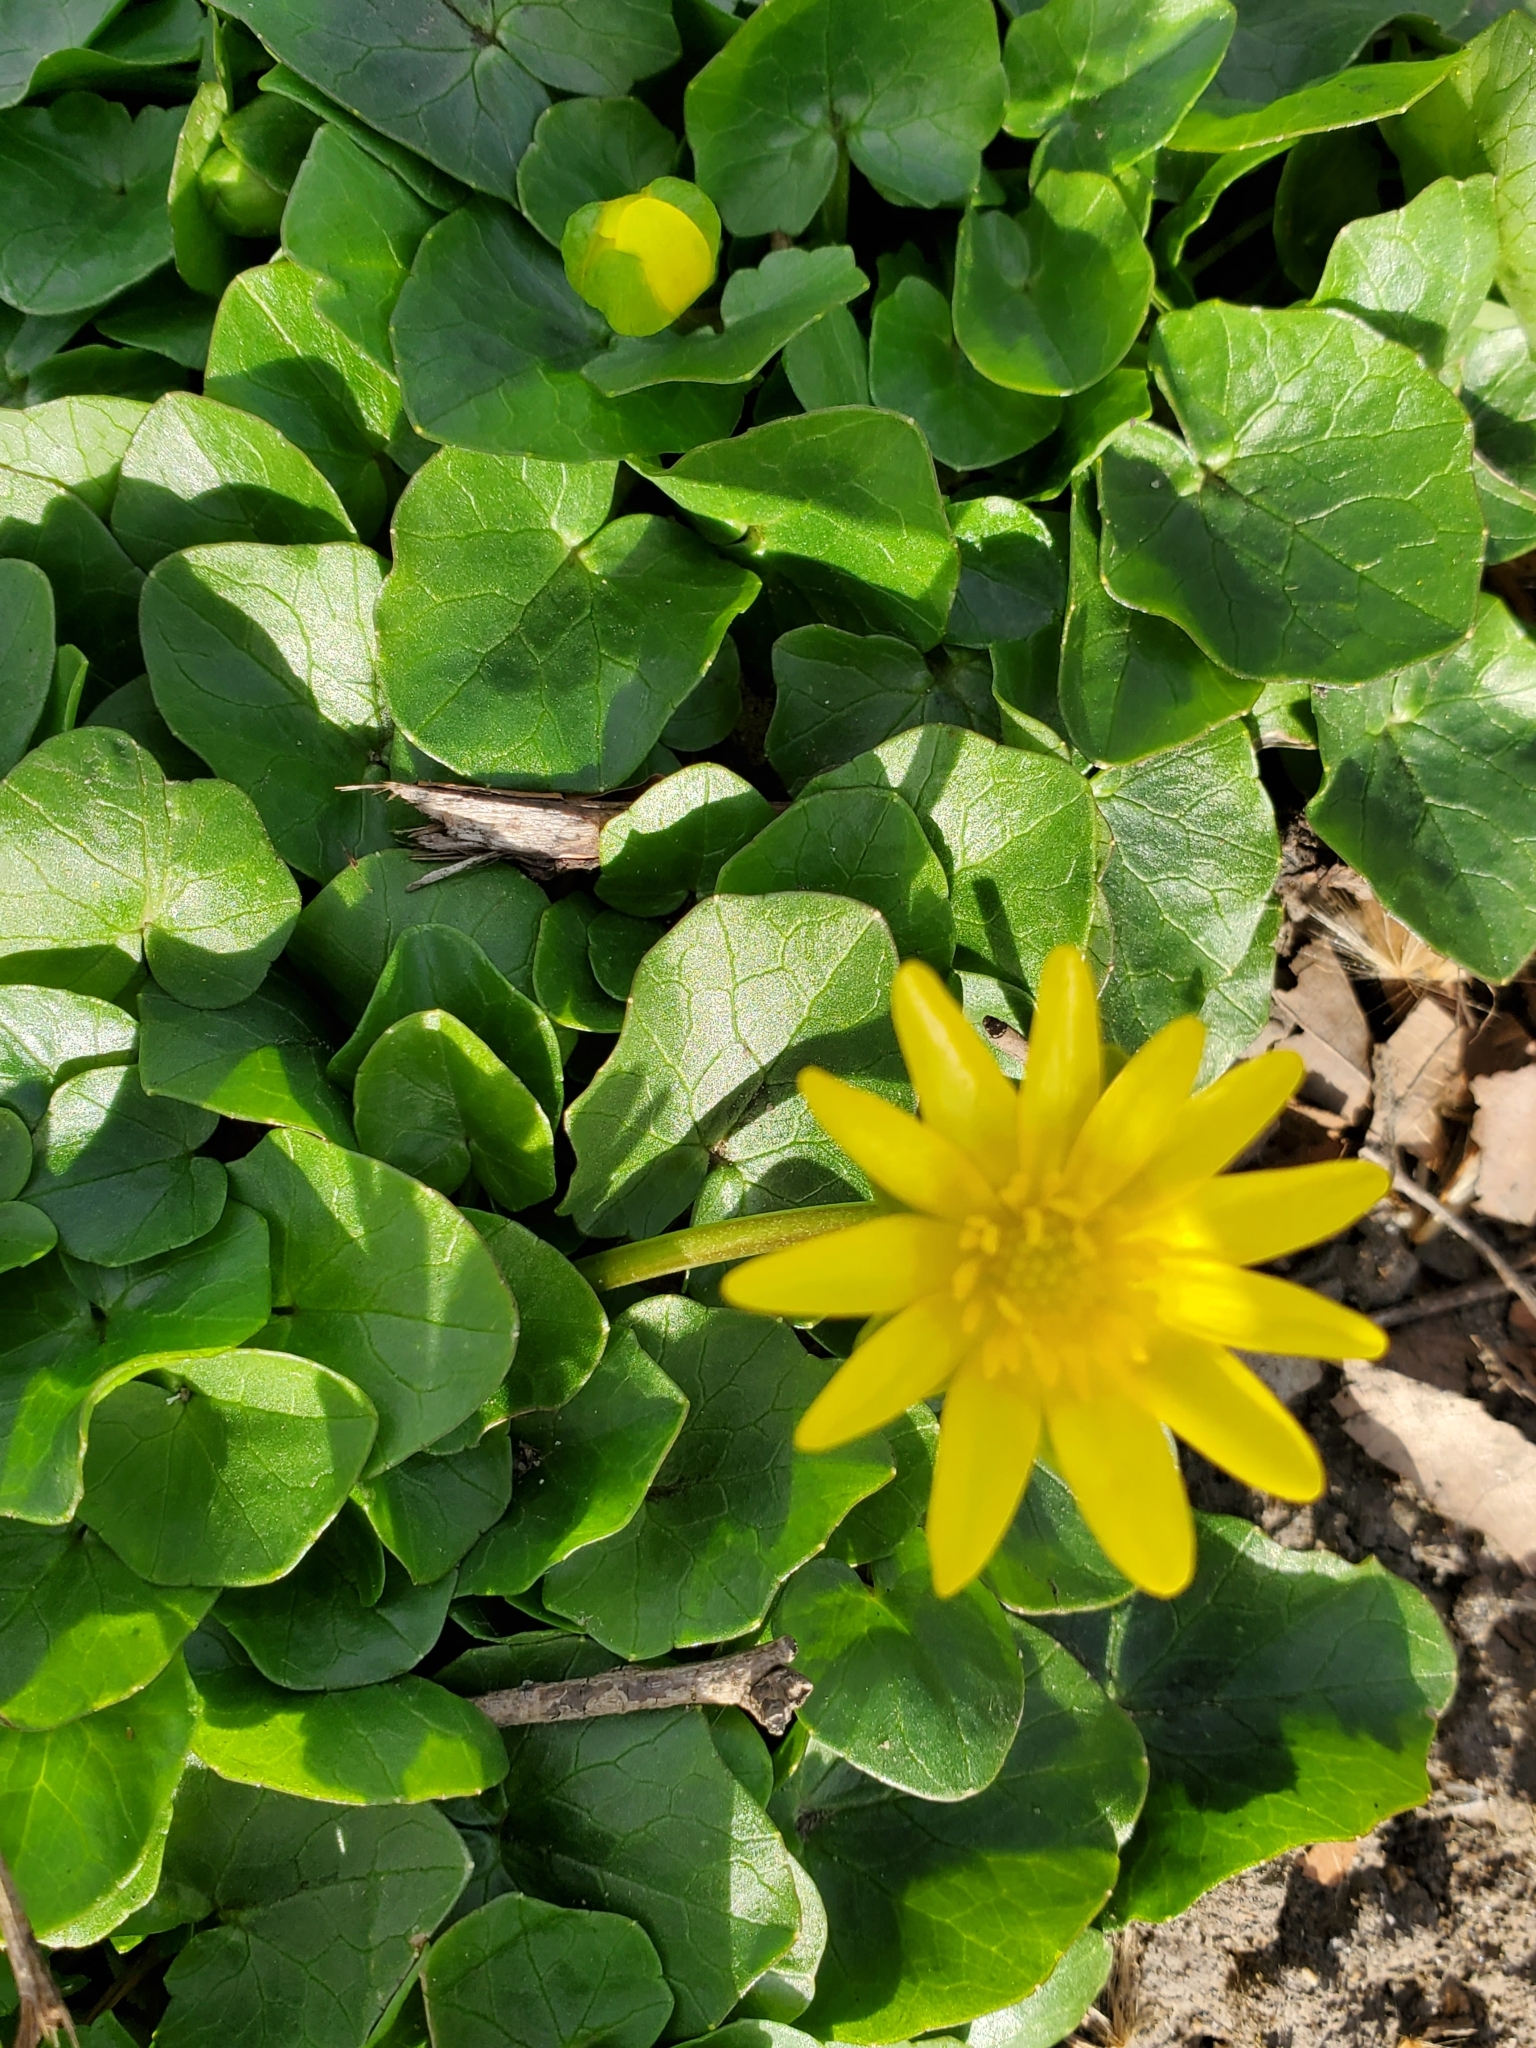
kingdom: Plantae
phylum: Tracheophyta
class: Magnoliopsida
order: Ranunculales
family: Ranunculaceae
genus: Ficaria
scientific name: Ficaria verna
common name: Lesser celandine
